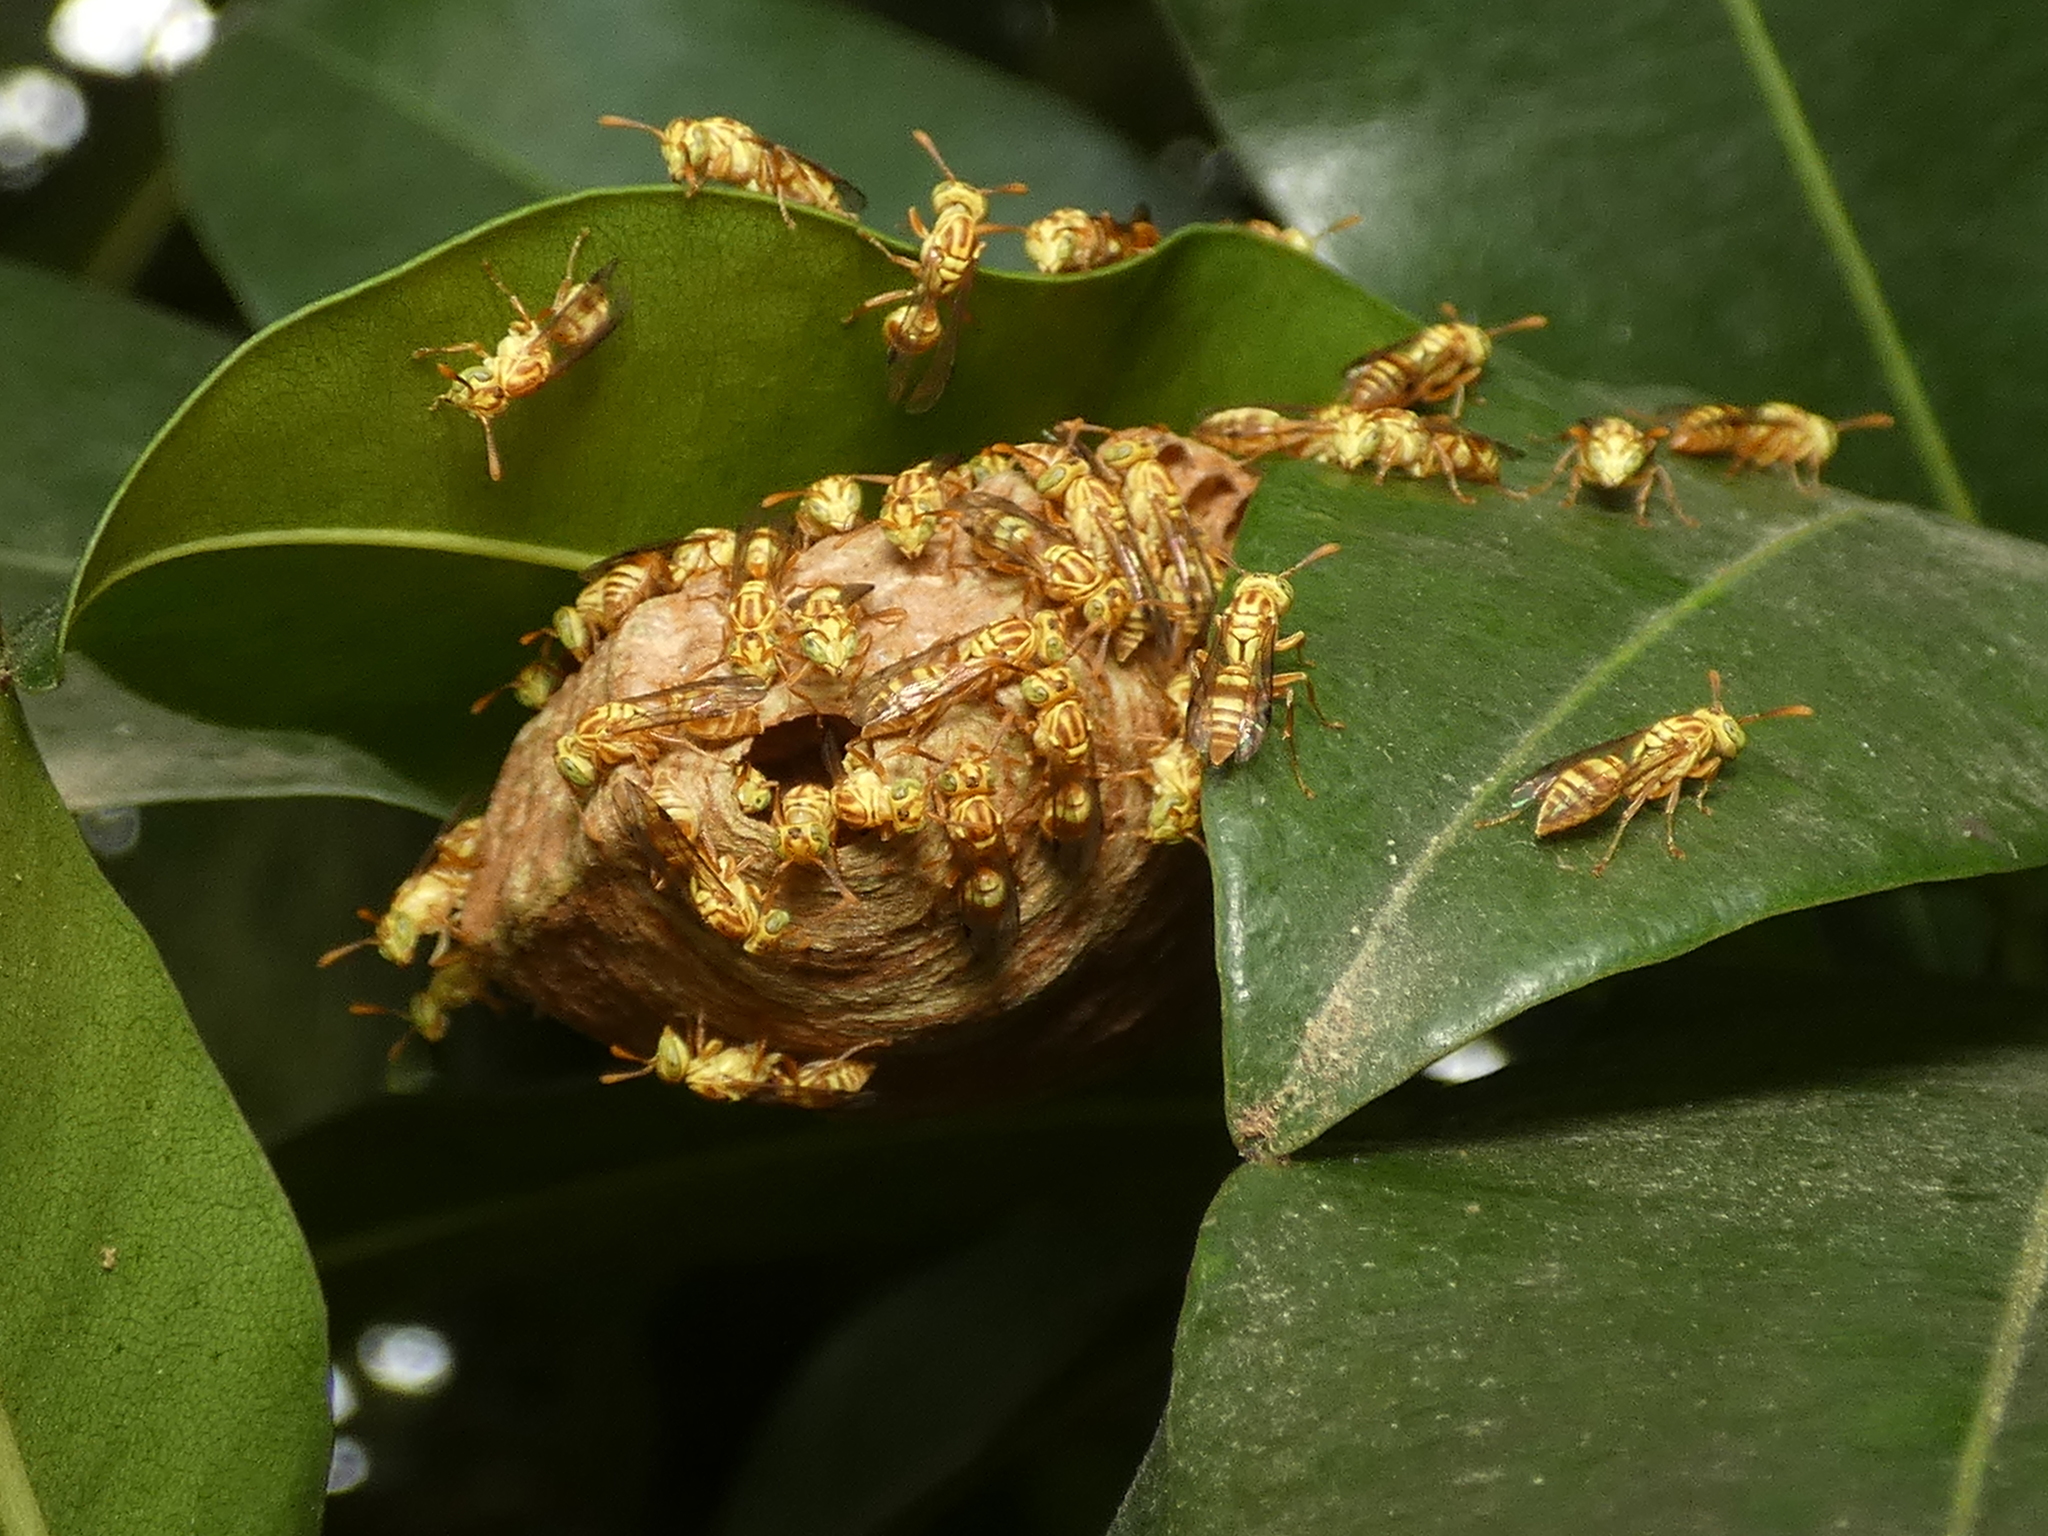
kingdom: Animalia
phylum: Arthropoda
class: Insecta
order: Hymenoptera
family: Vespidae
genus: Protopolybia
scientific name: Protopolybia potiguara
